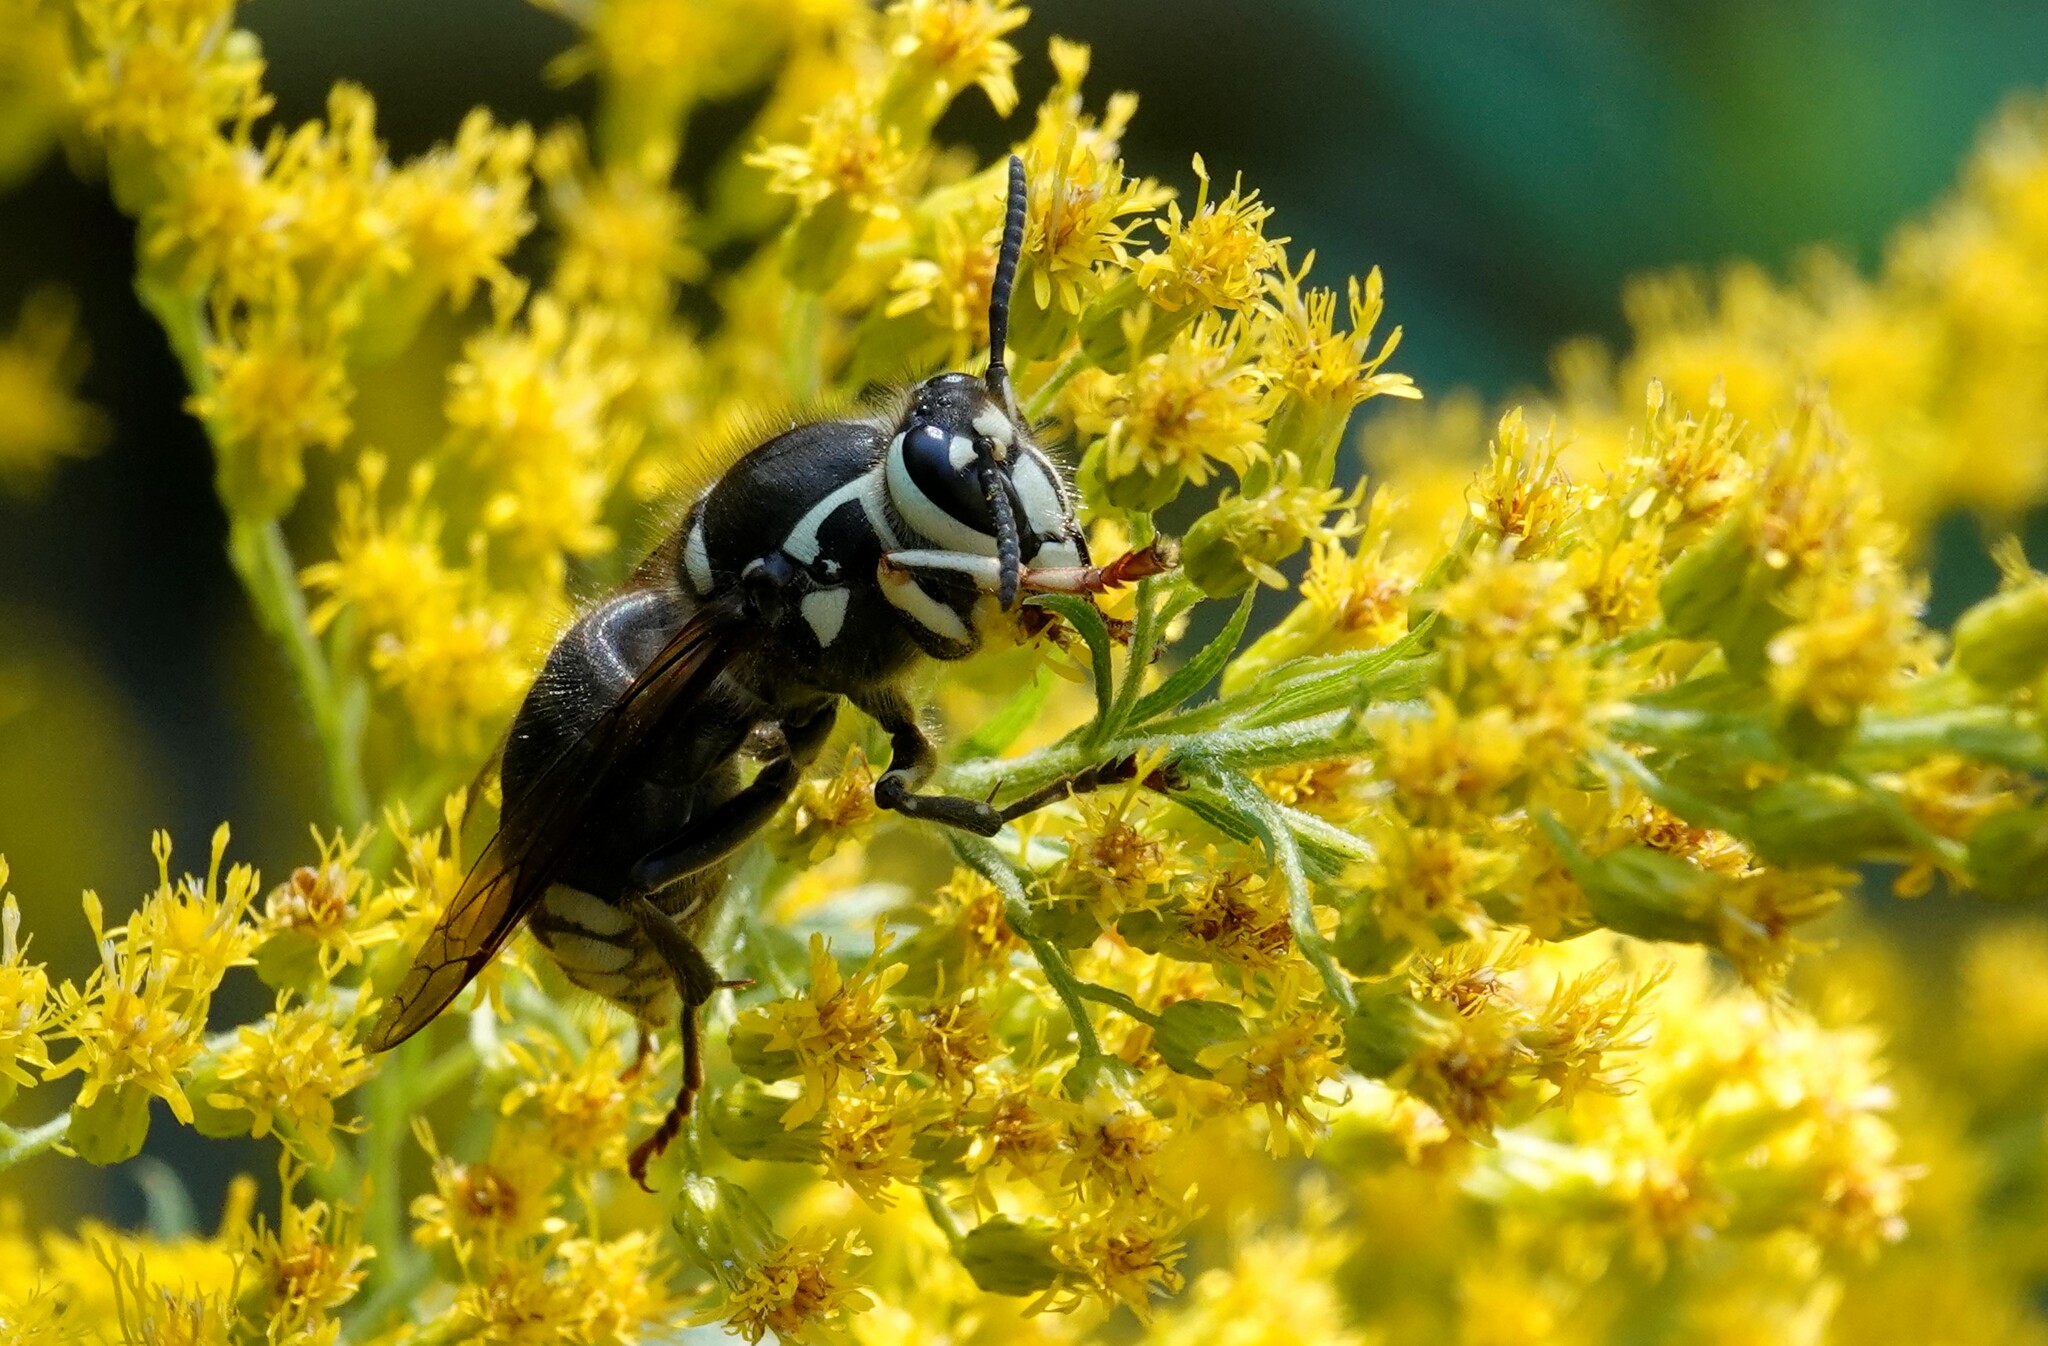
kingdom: Animalia
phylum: Arthropoda
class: Insecta
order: Hymenoptera
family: Vespidae
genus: Dolichovespula
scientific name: Dolichovespula maculata
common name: Bald-faced hornet
